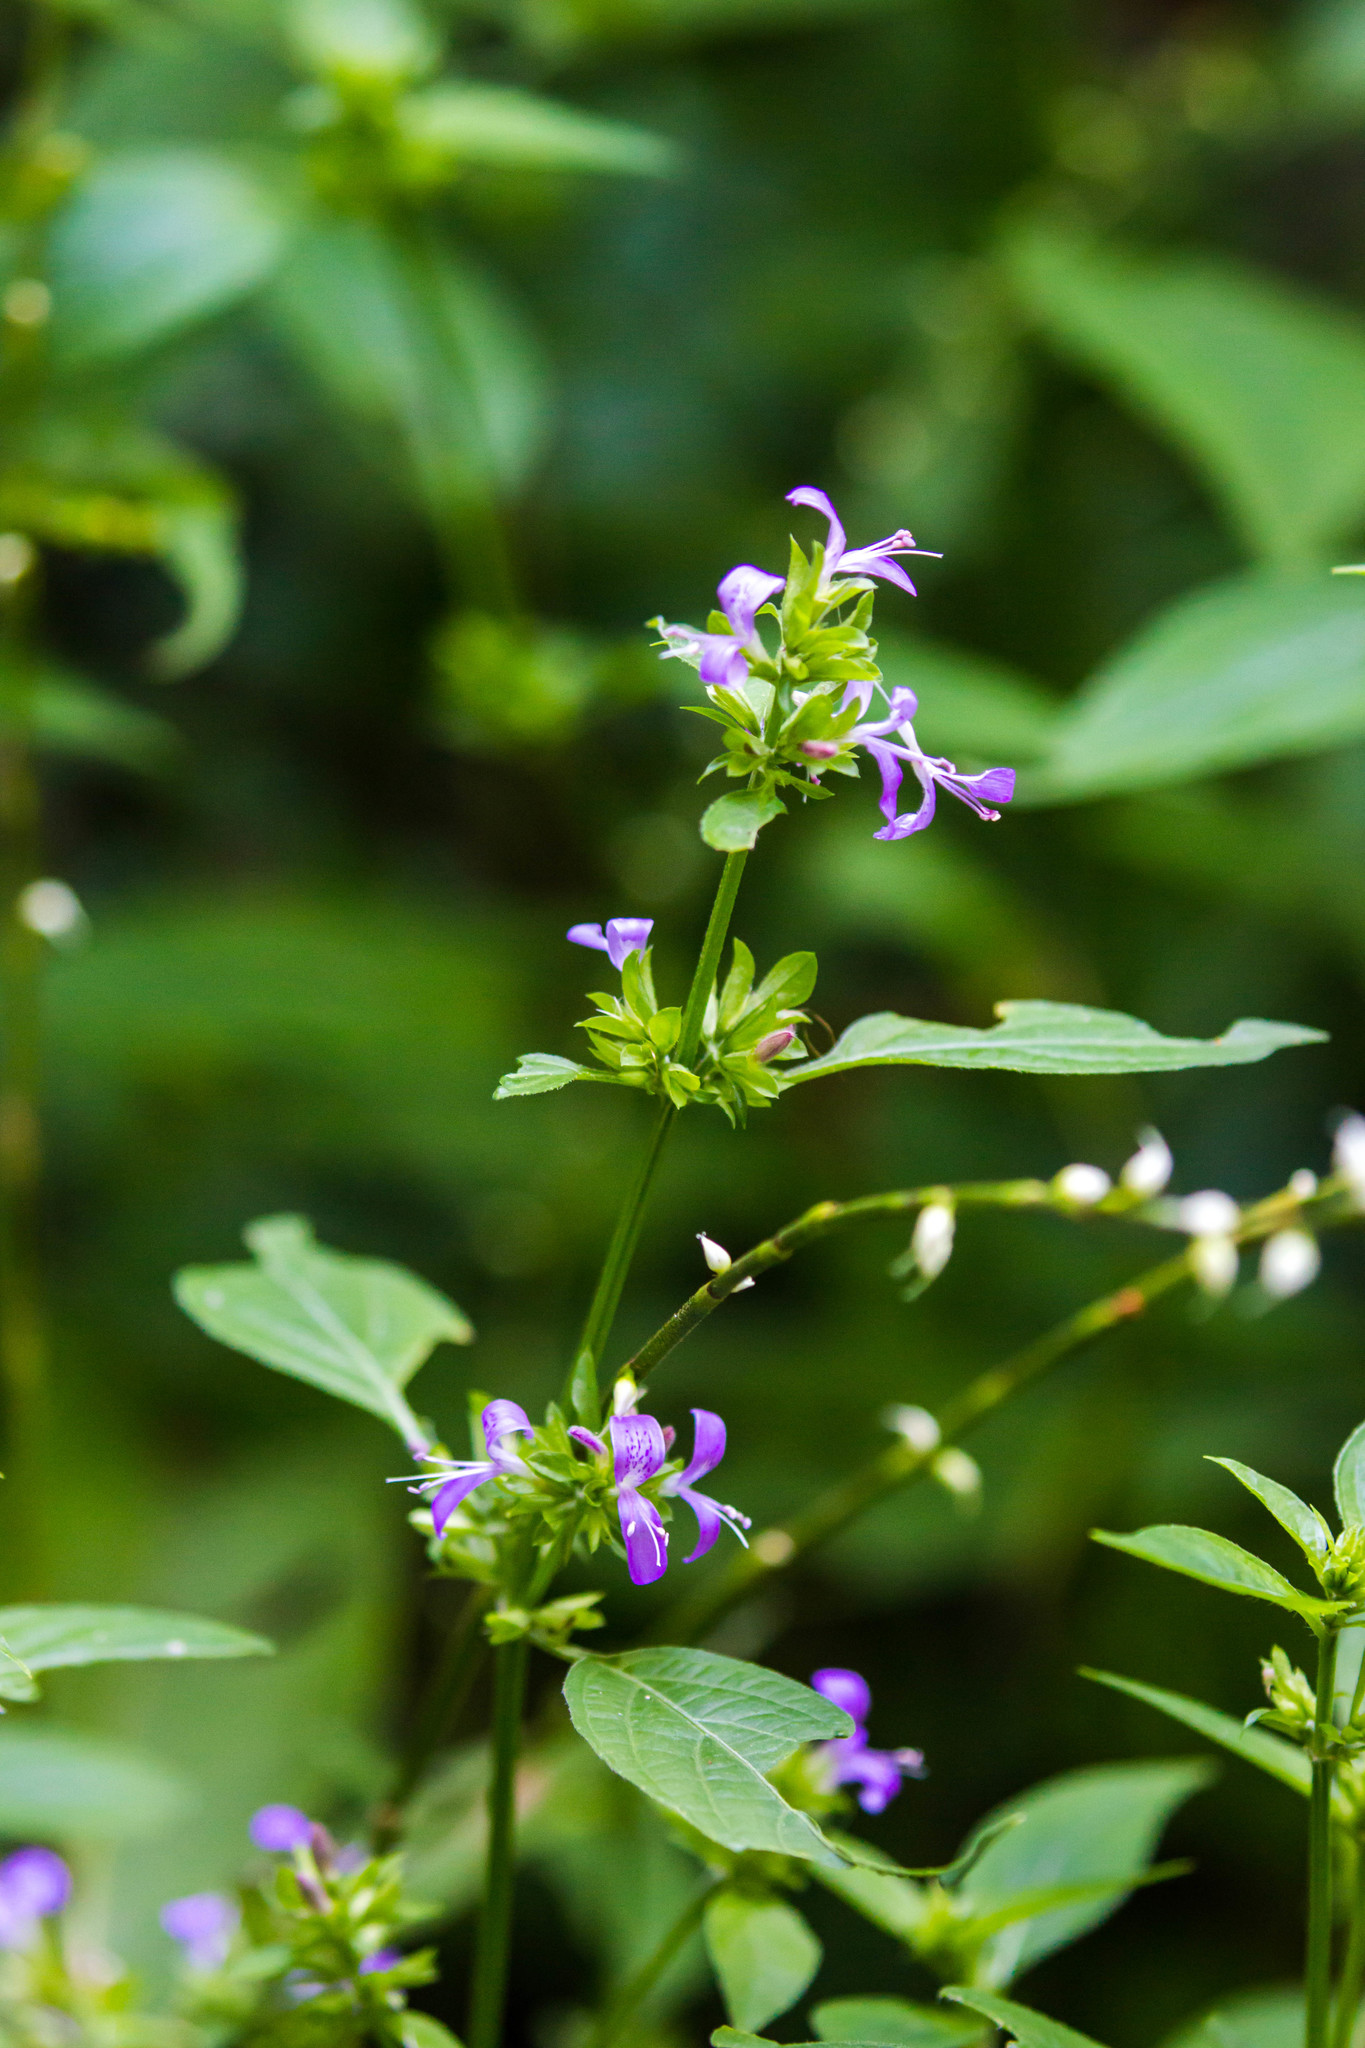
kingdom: Plantae
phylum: Tracheophyta
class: Magnoliopsida
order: Lamiales
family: Acanthaceae
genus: Dicliptera
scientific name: Dicliptera brachiata
